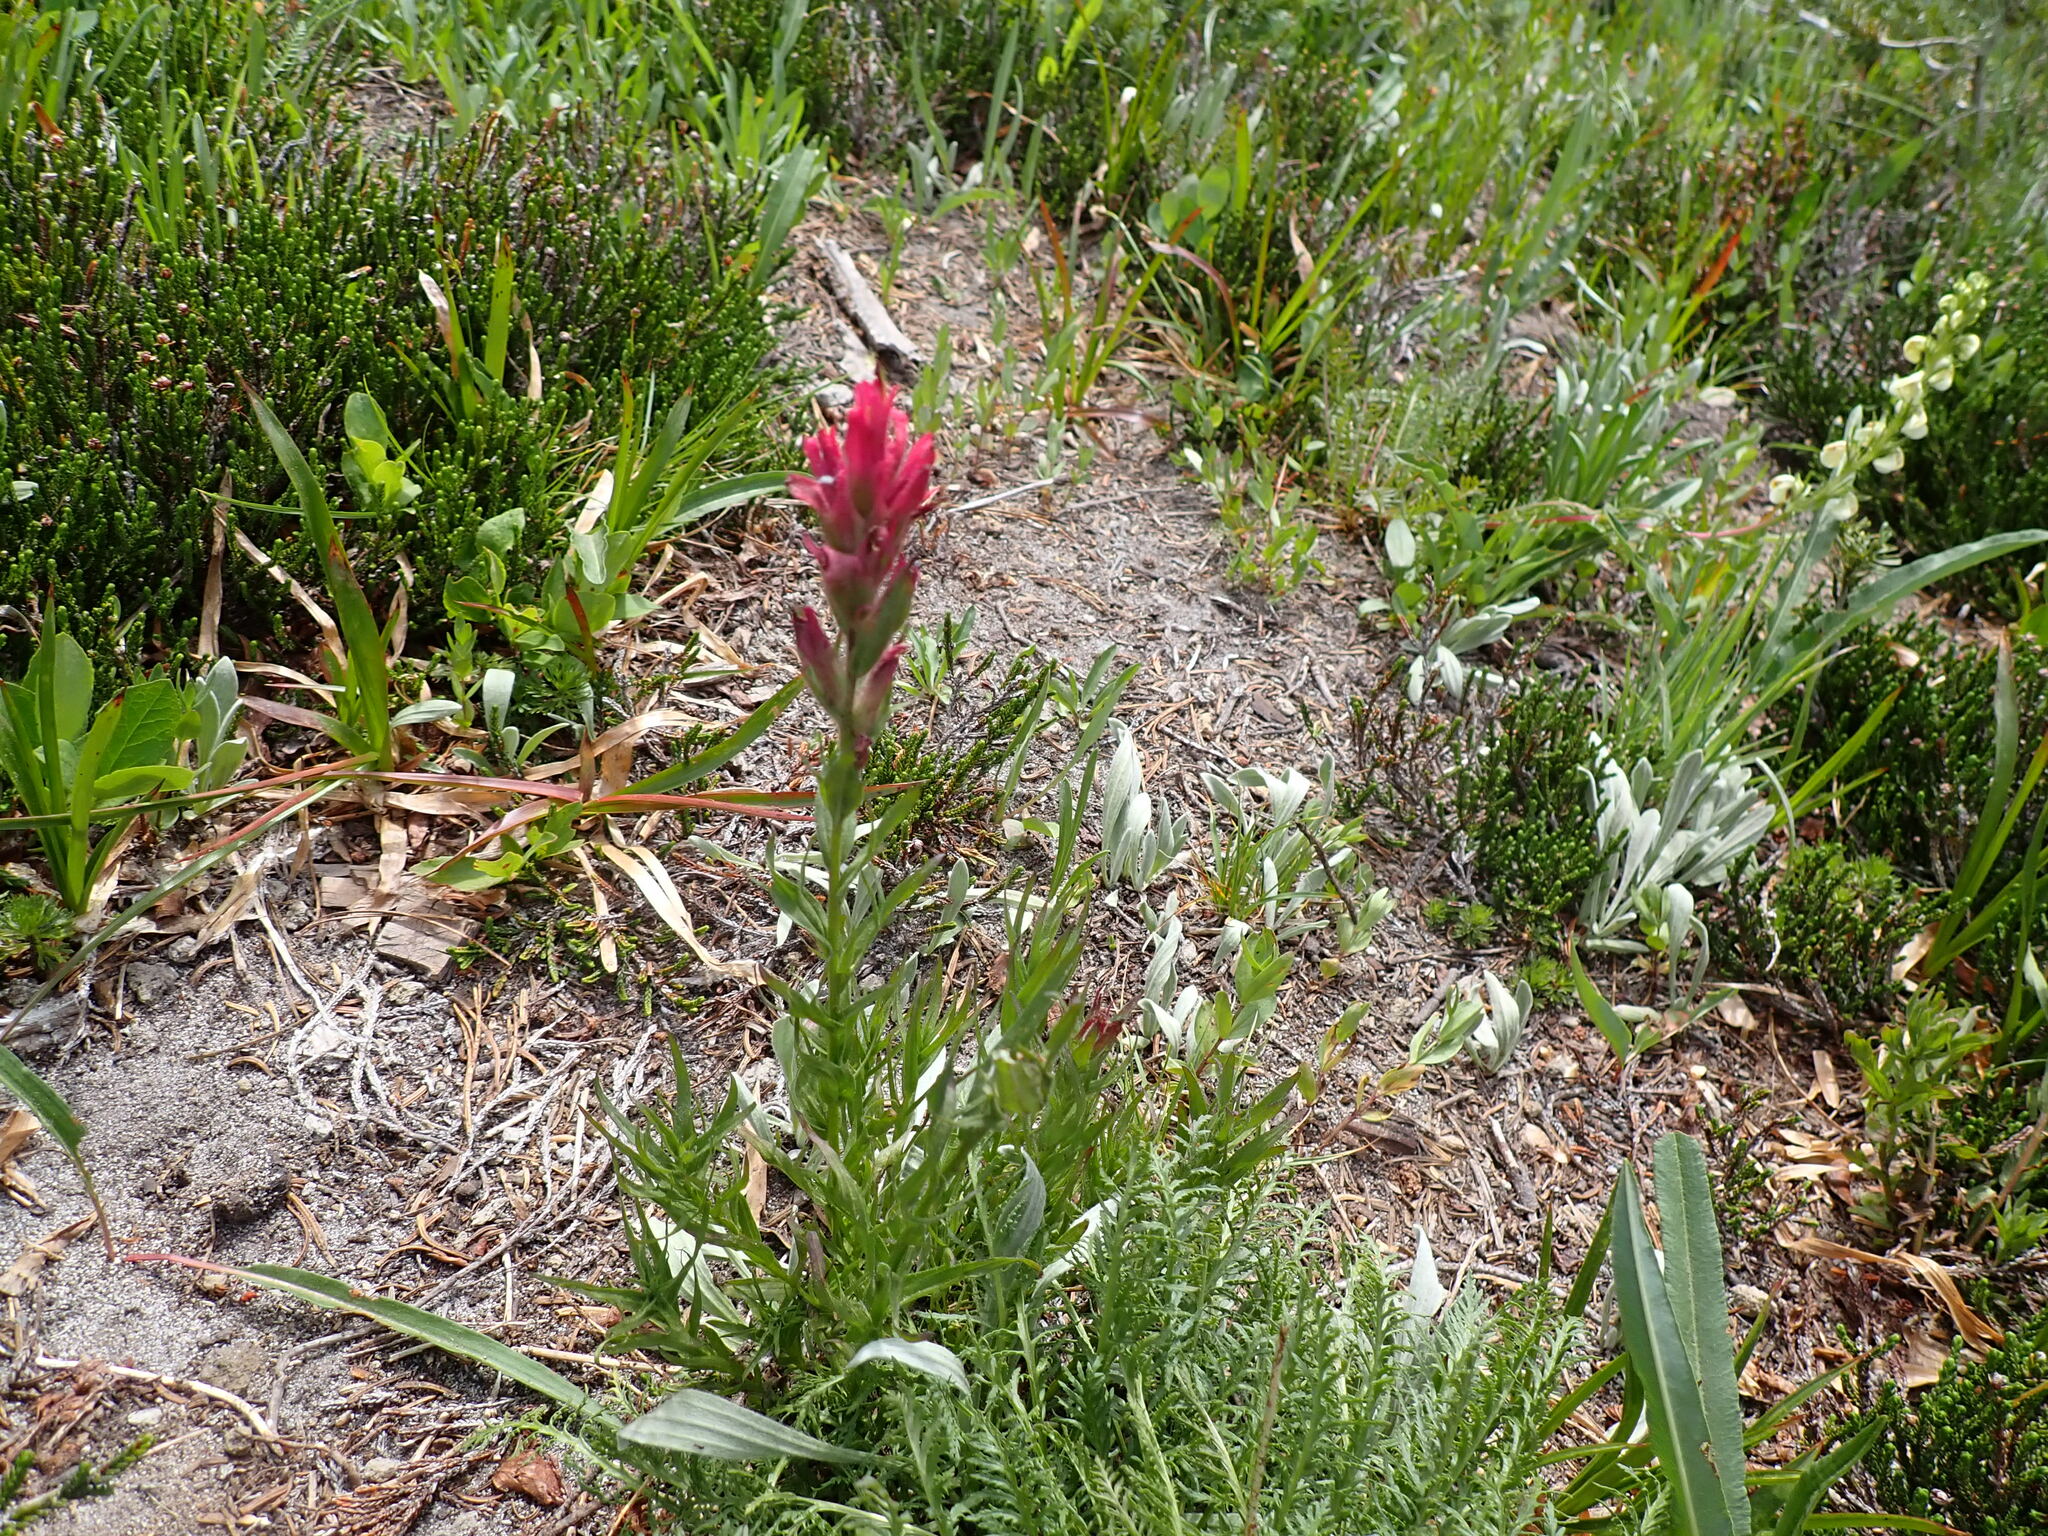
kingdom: Plantae
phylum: Tracheophyta
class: Magnoliopsida
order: Lamiales
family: Orobanchaceae
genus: Castilleja
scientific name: Castilleja parviflora
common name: Mountain paintbrush
